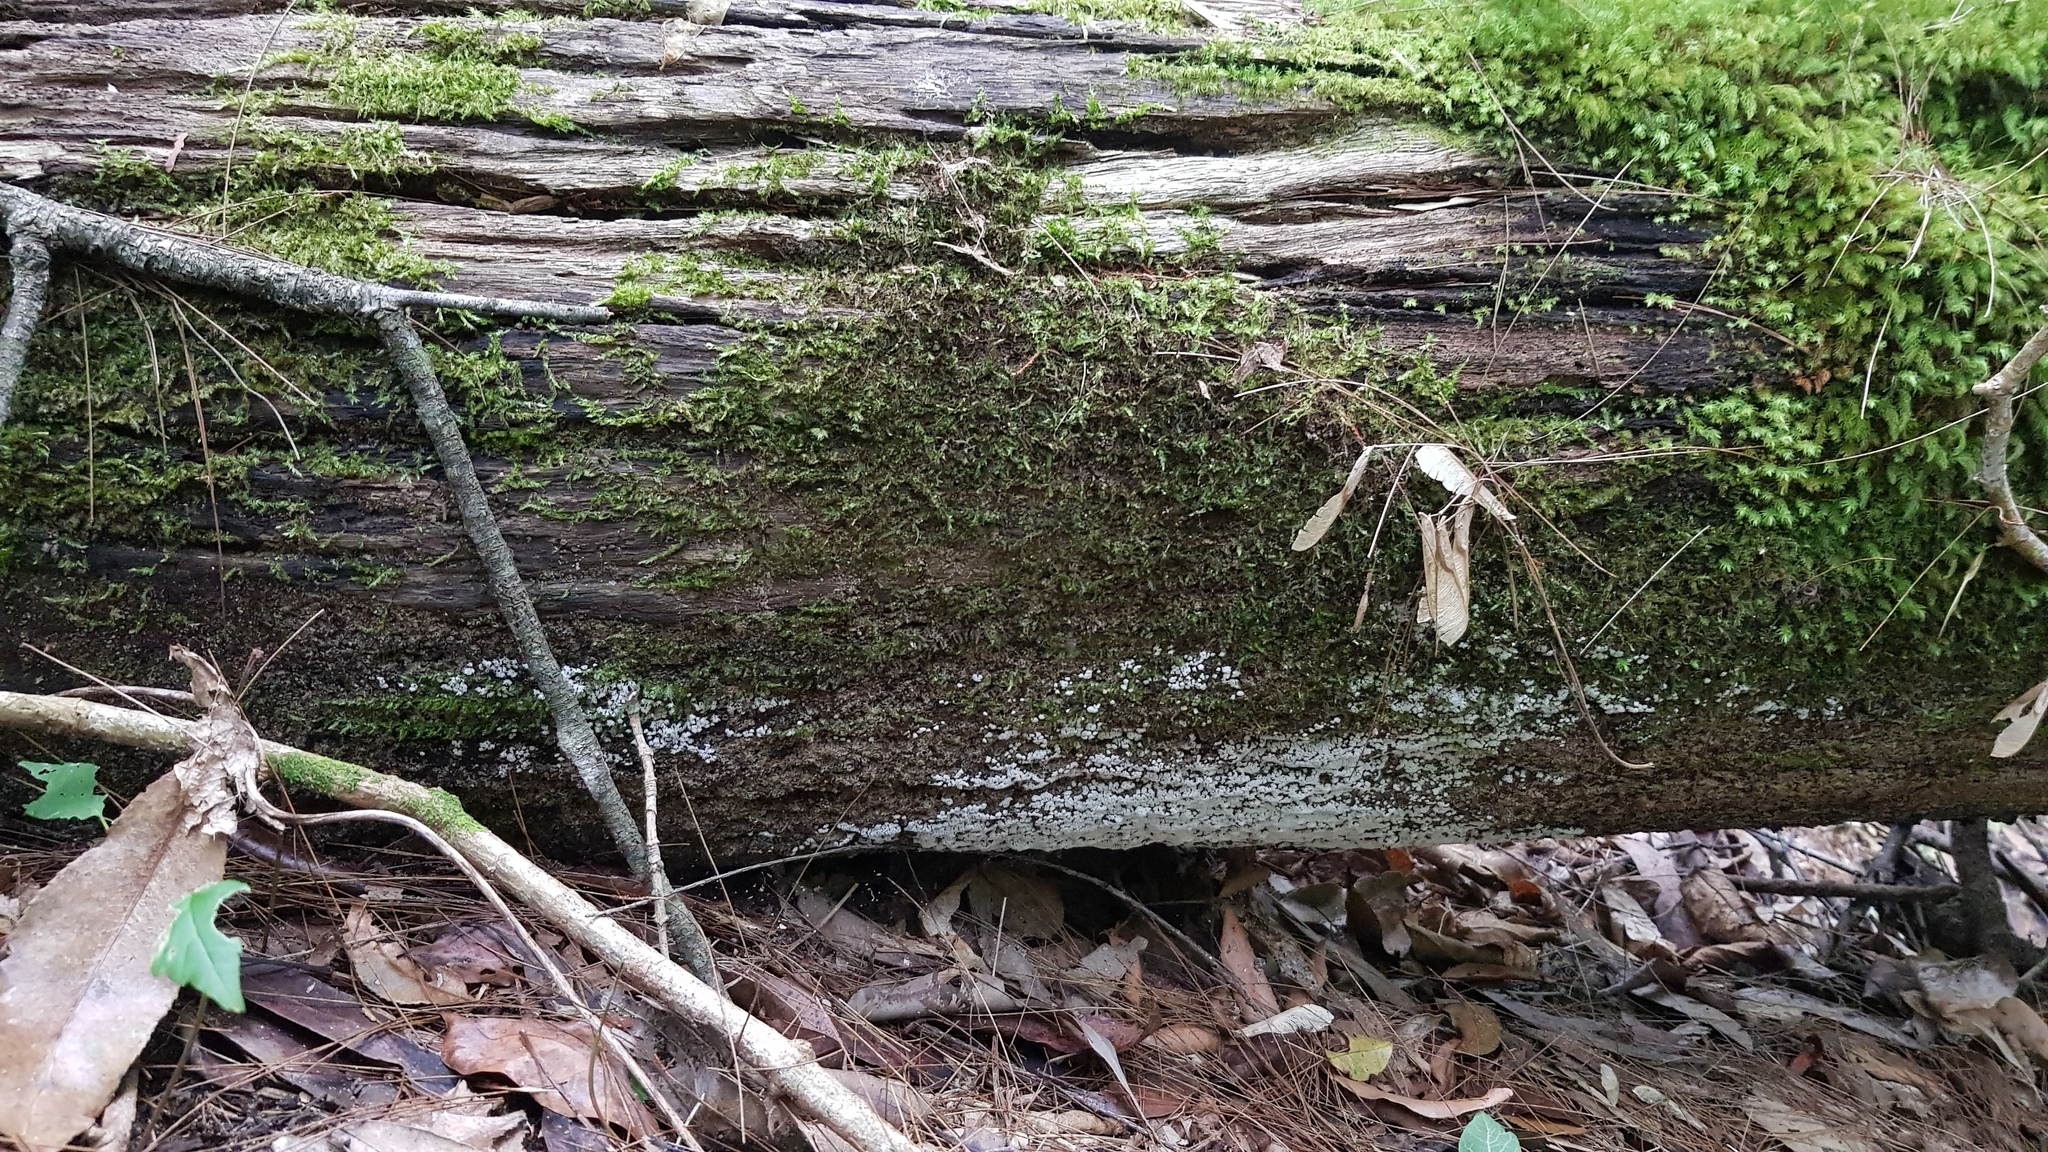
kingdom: Protozoa
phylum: Mycetozoa
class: Protosteliomycetes
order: Ceratiomyxales
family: Ceratiomyxaceae
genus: Ceratiomyxa
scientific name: Ceratiomyxa fruticulosa
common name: Honeycomb coral slime mold
